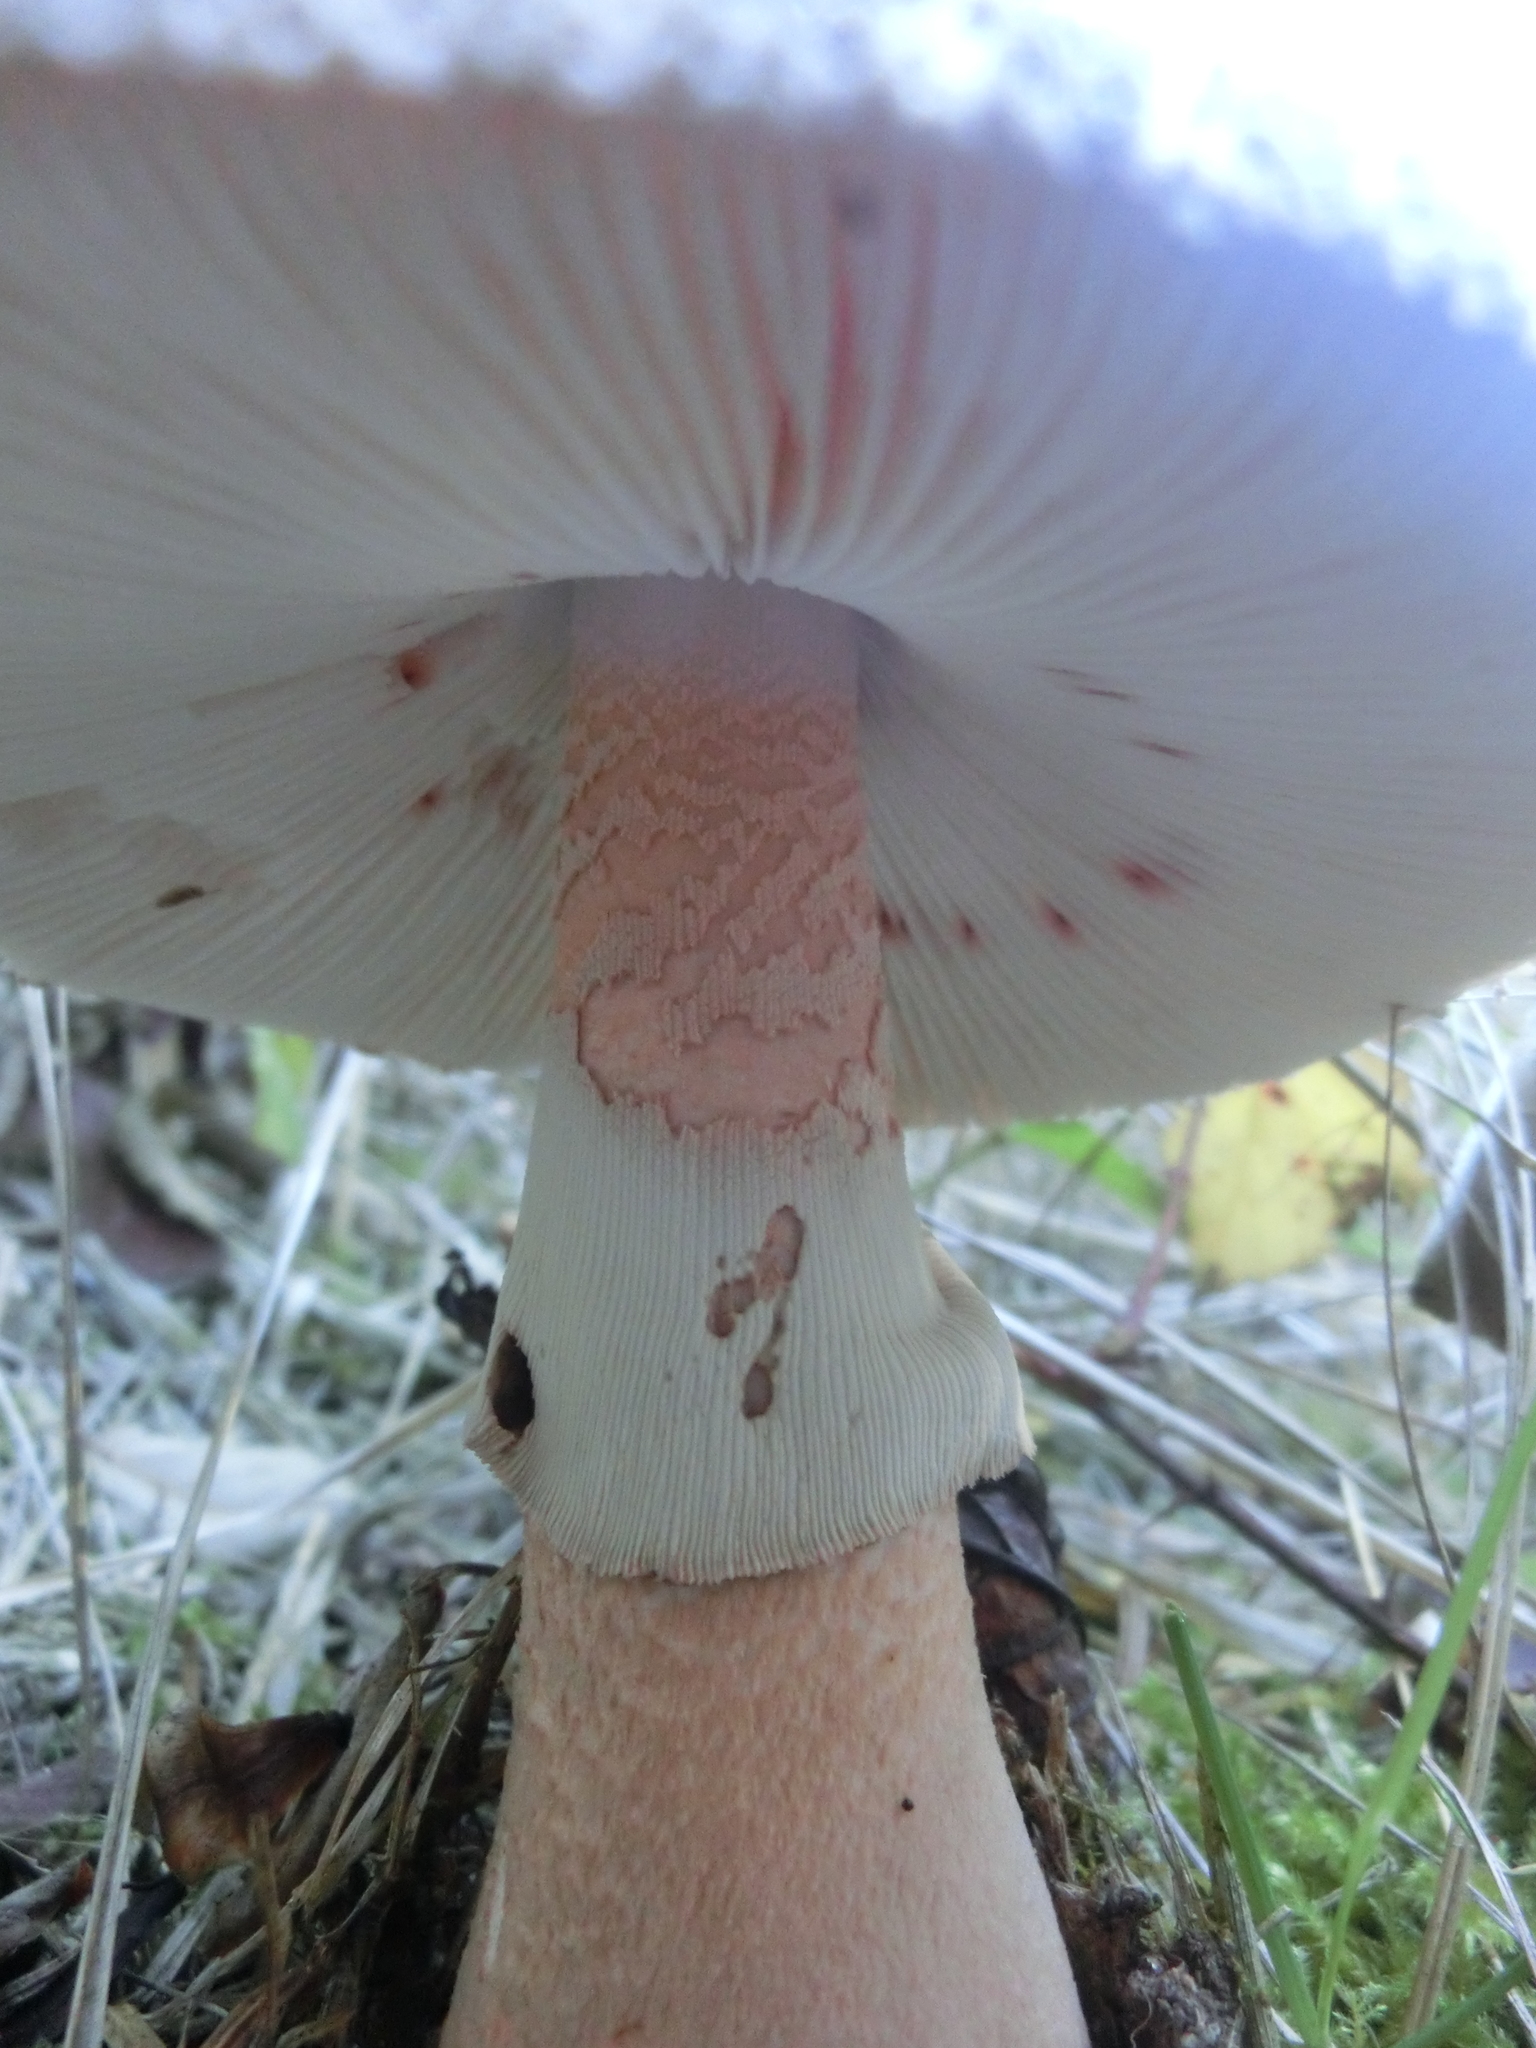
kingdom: Fungi
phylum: Basidiomycota
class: Agaricomycetes
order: Agaricales
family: Amanitaceae
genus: Amanita
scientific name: Amanita rubescens
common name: Blusher
